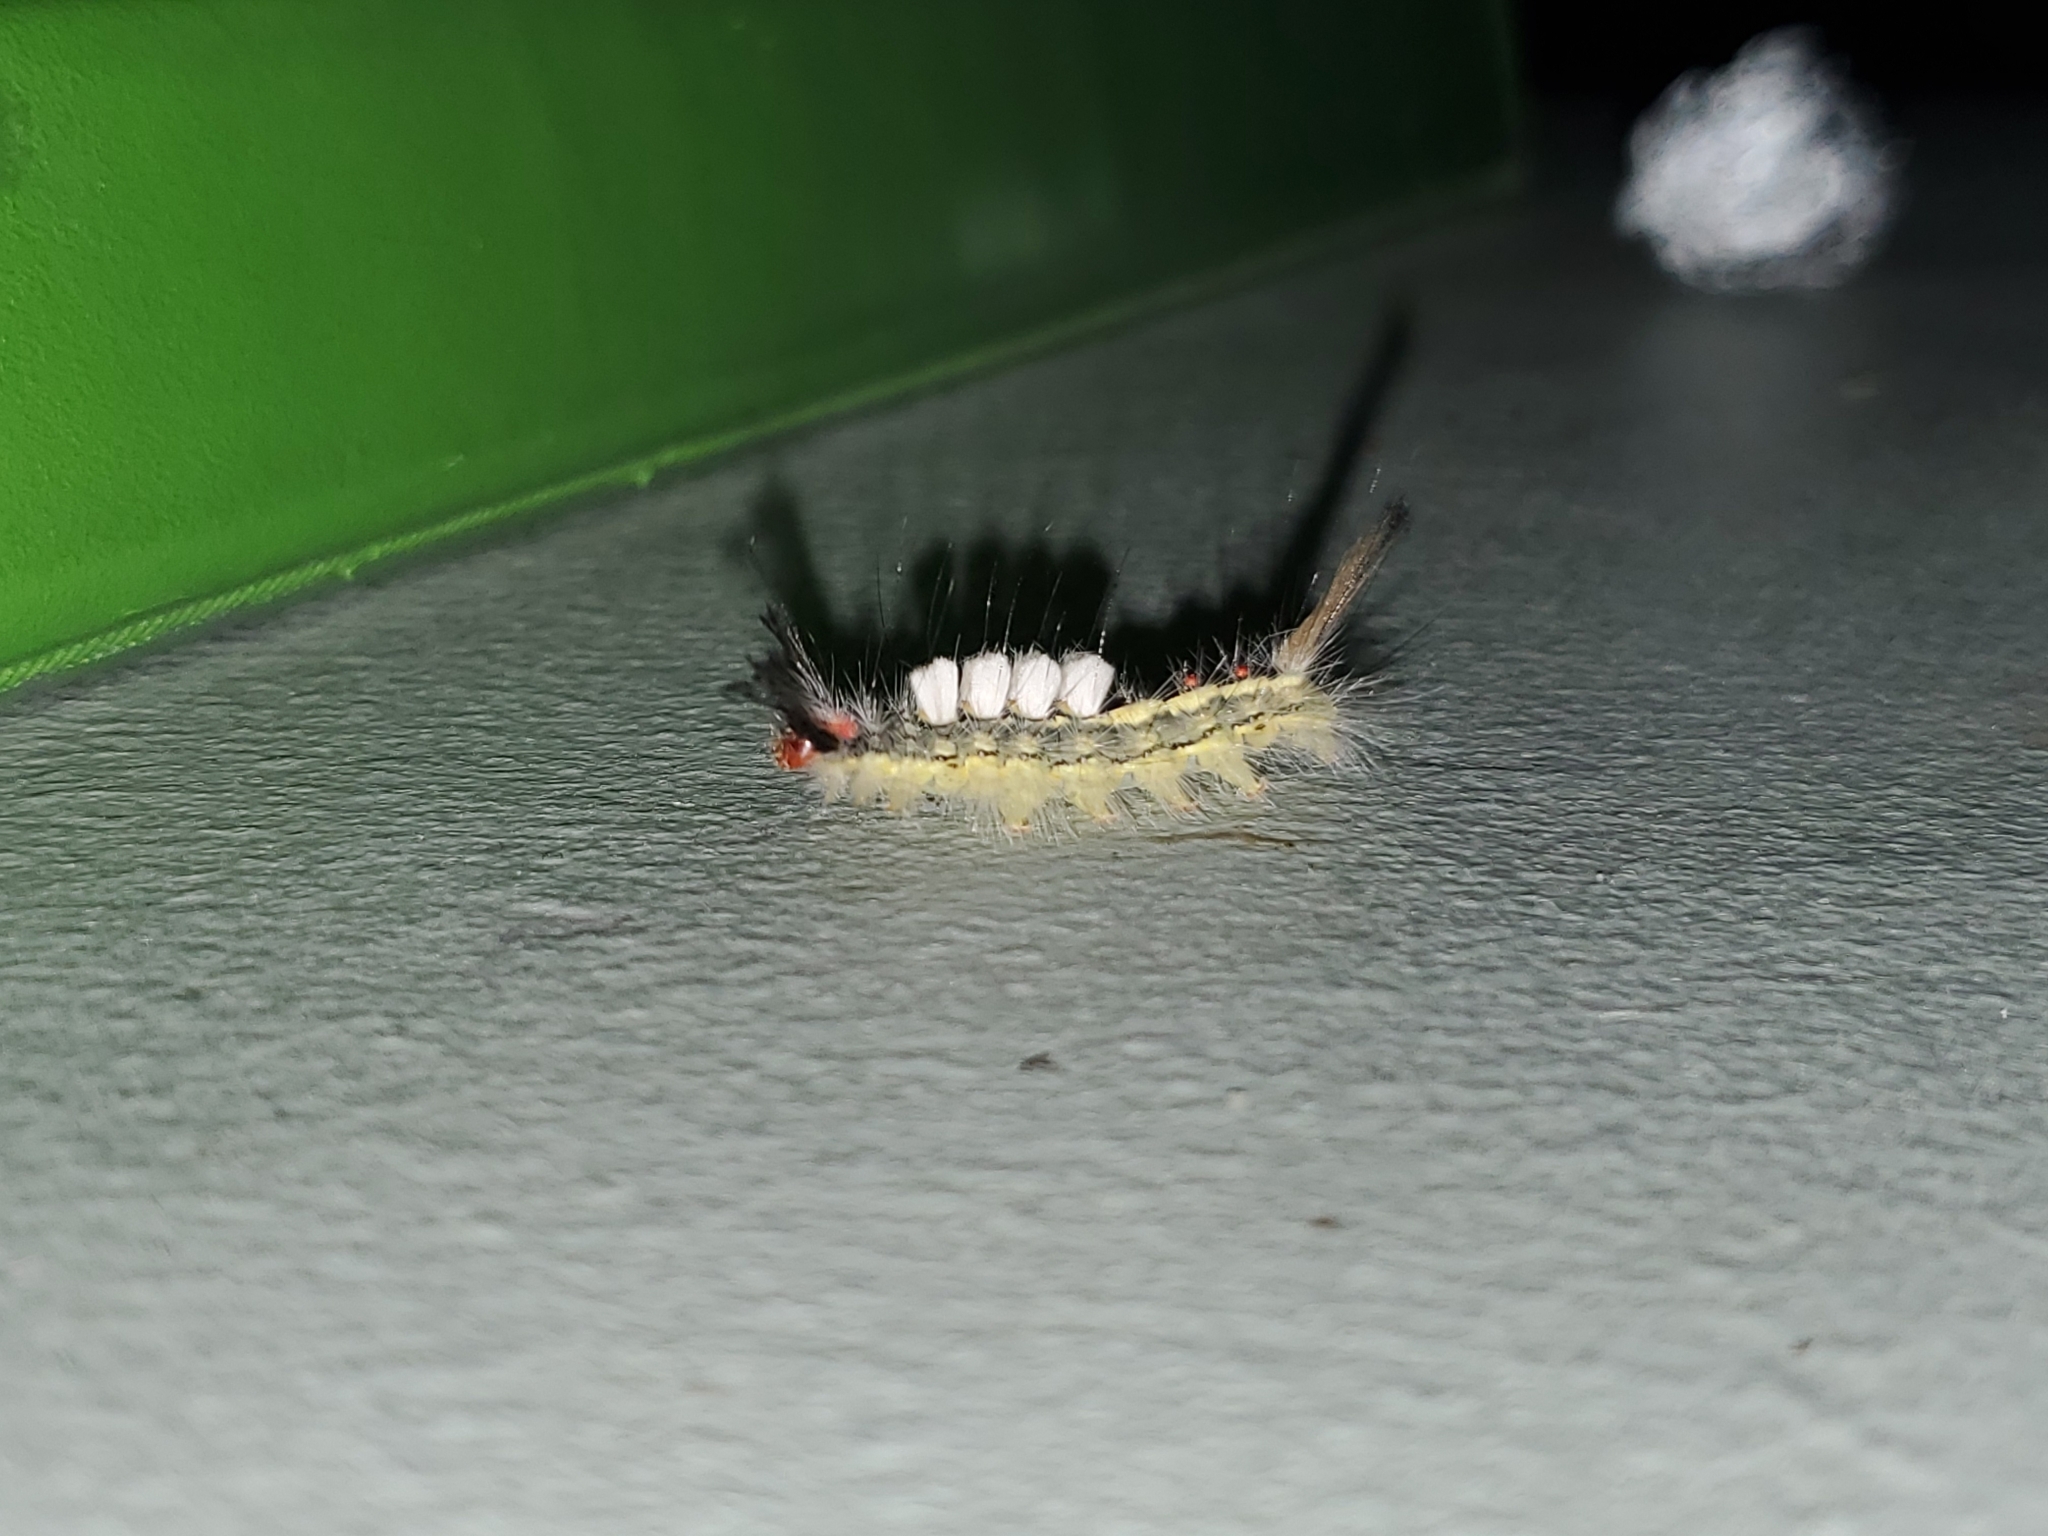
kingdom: Animalia
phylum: Arthropoda
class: Insecta
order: Lepidoptera
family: Erebidae
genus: Orgyia
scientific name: Orgyia leucostigma
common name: White-marked tussock moth
